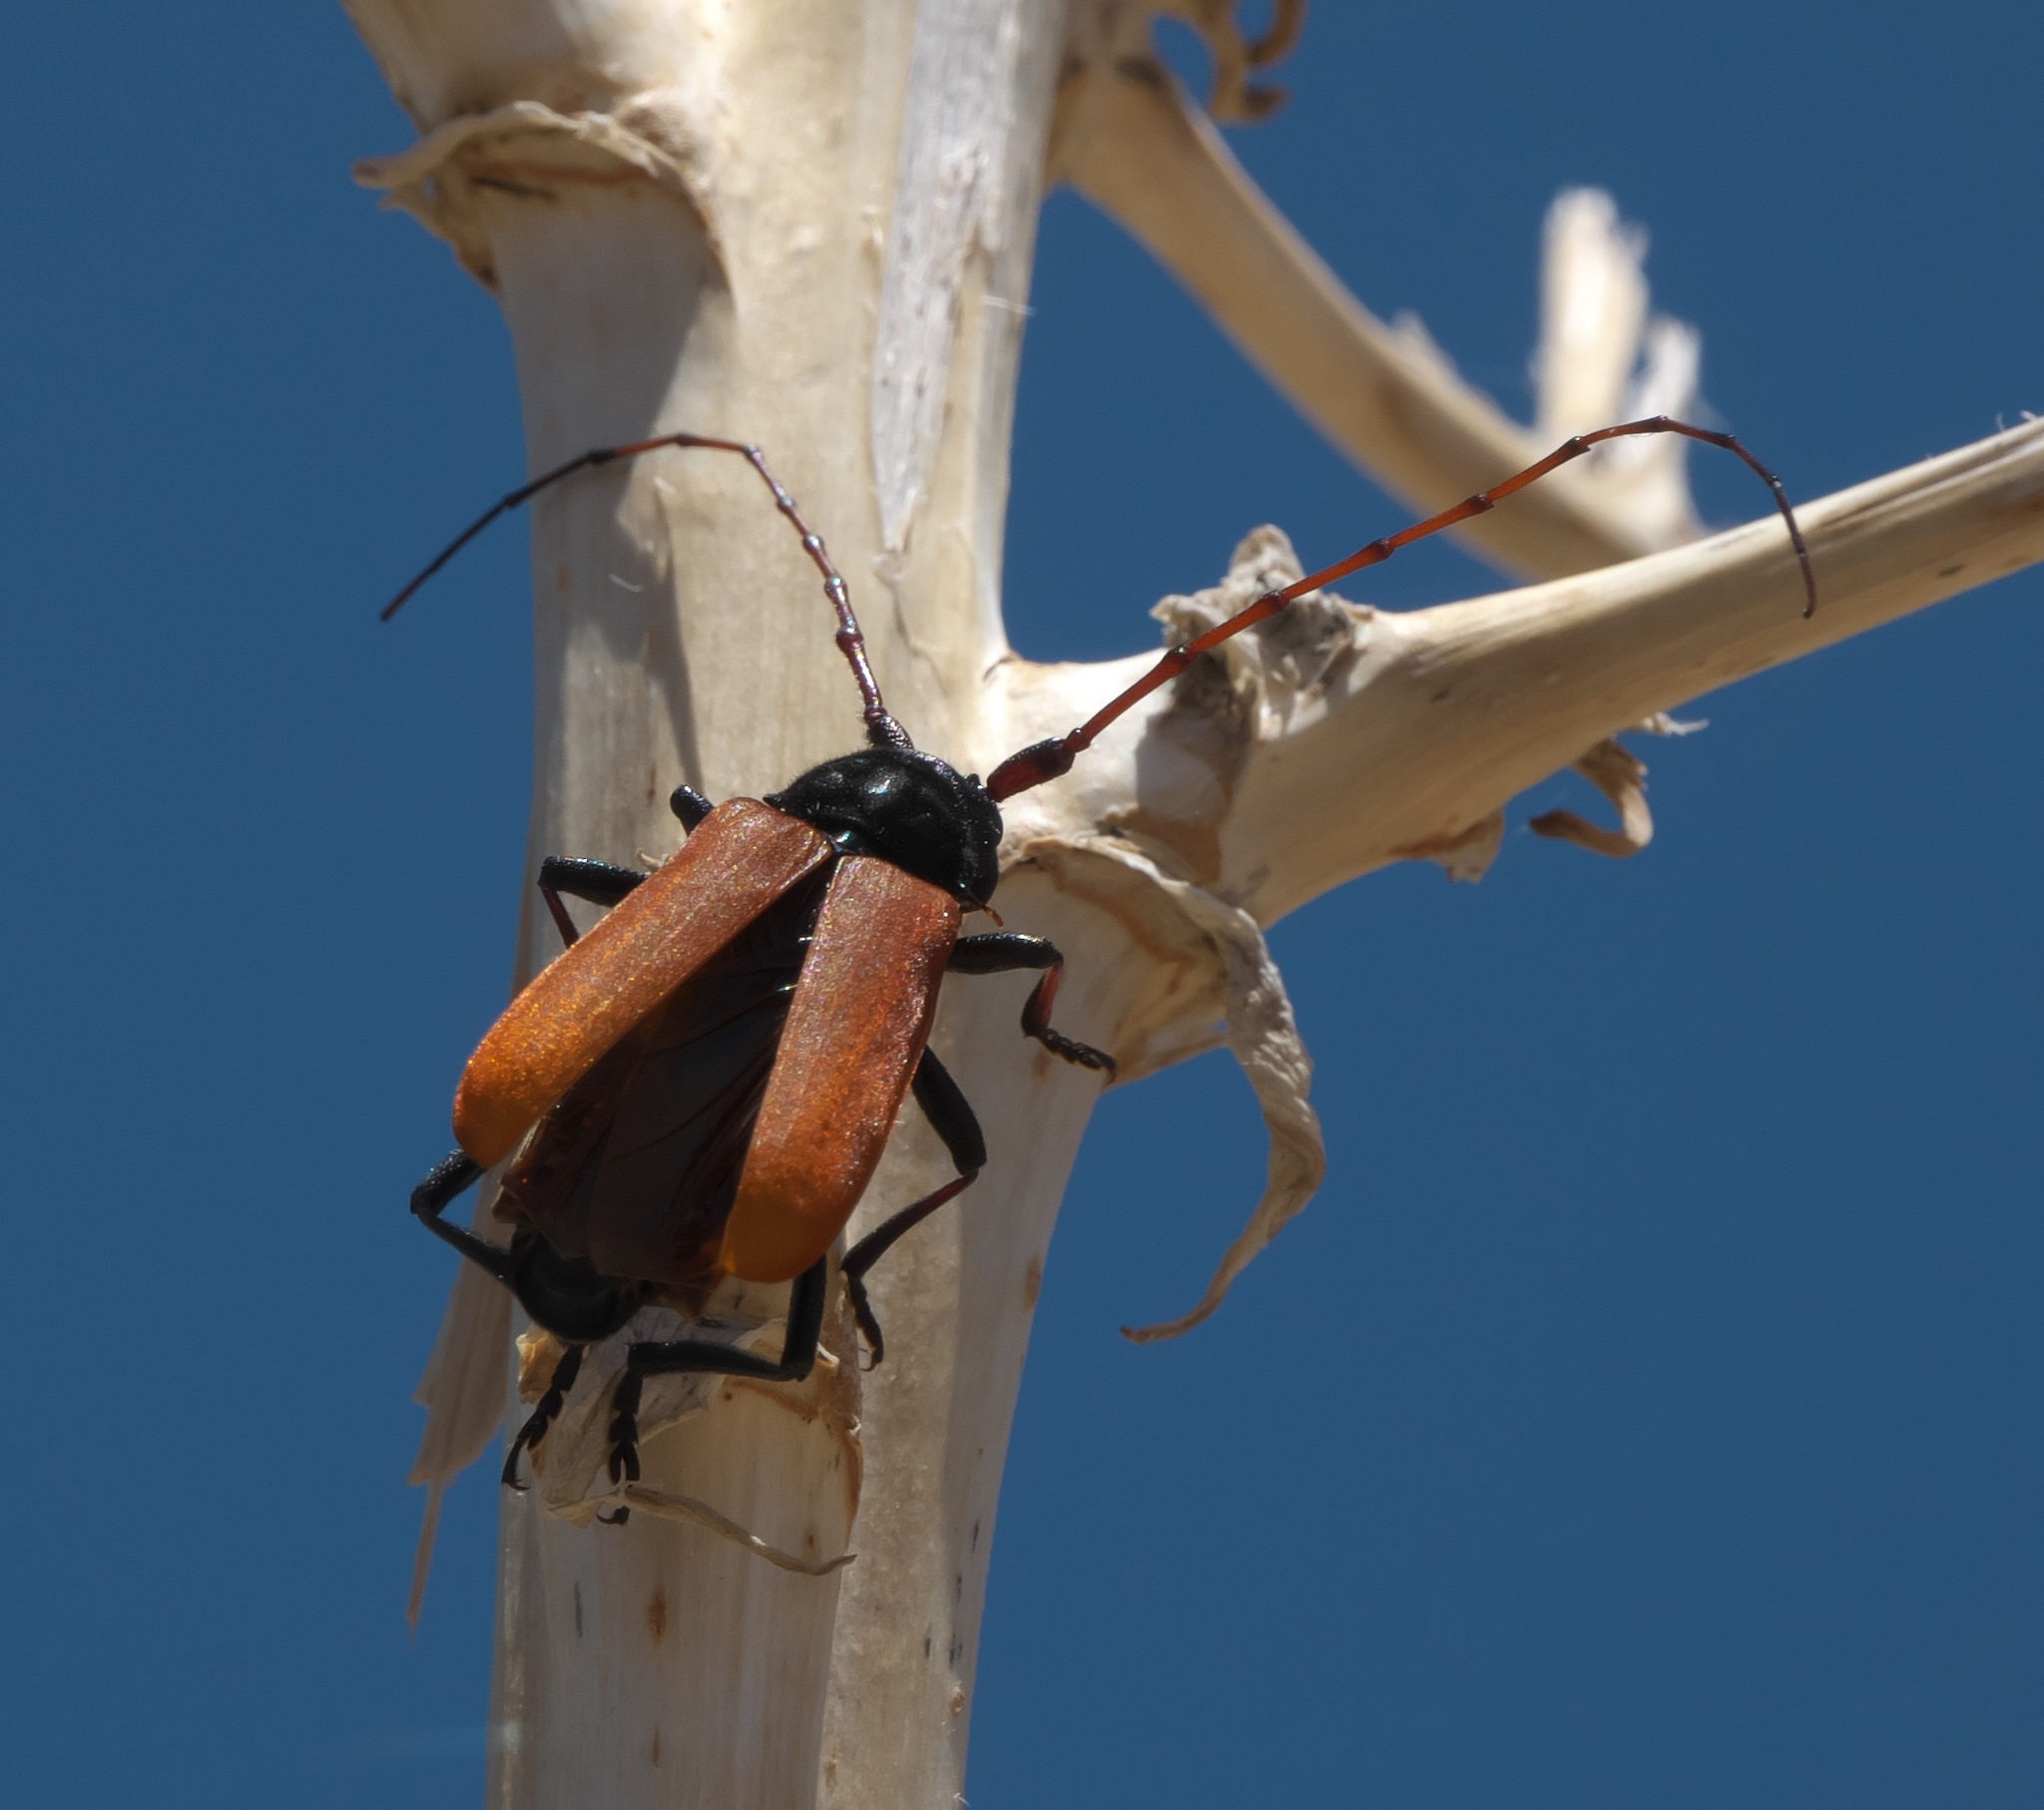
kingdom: Animalia
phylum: Arthropoda
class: Insecta
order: Coleoptera
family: Cerambycidae
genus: Tragidion
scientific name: Tragidion armatum
